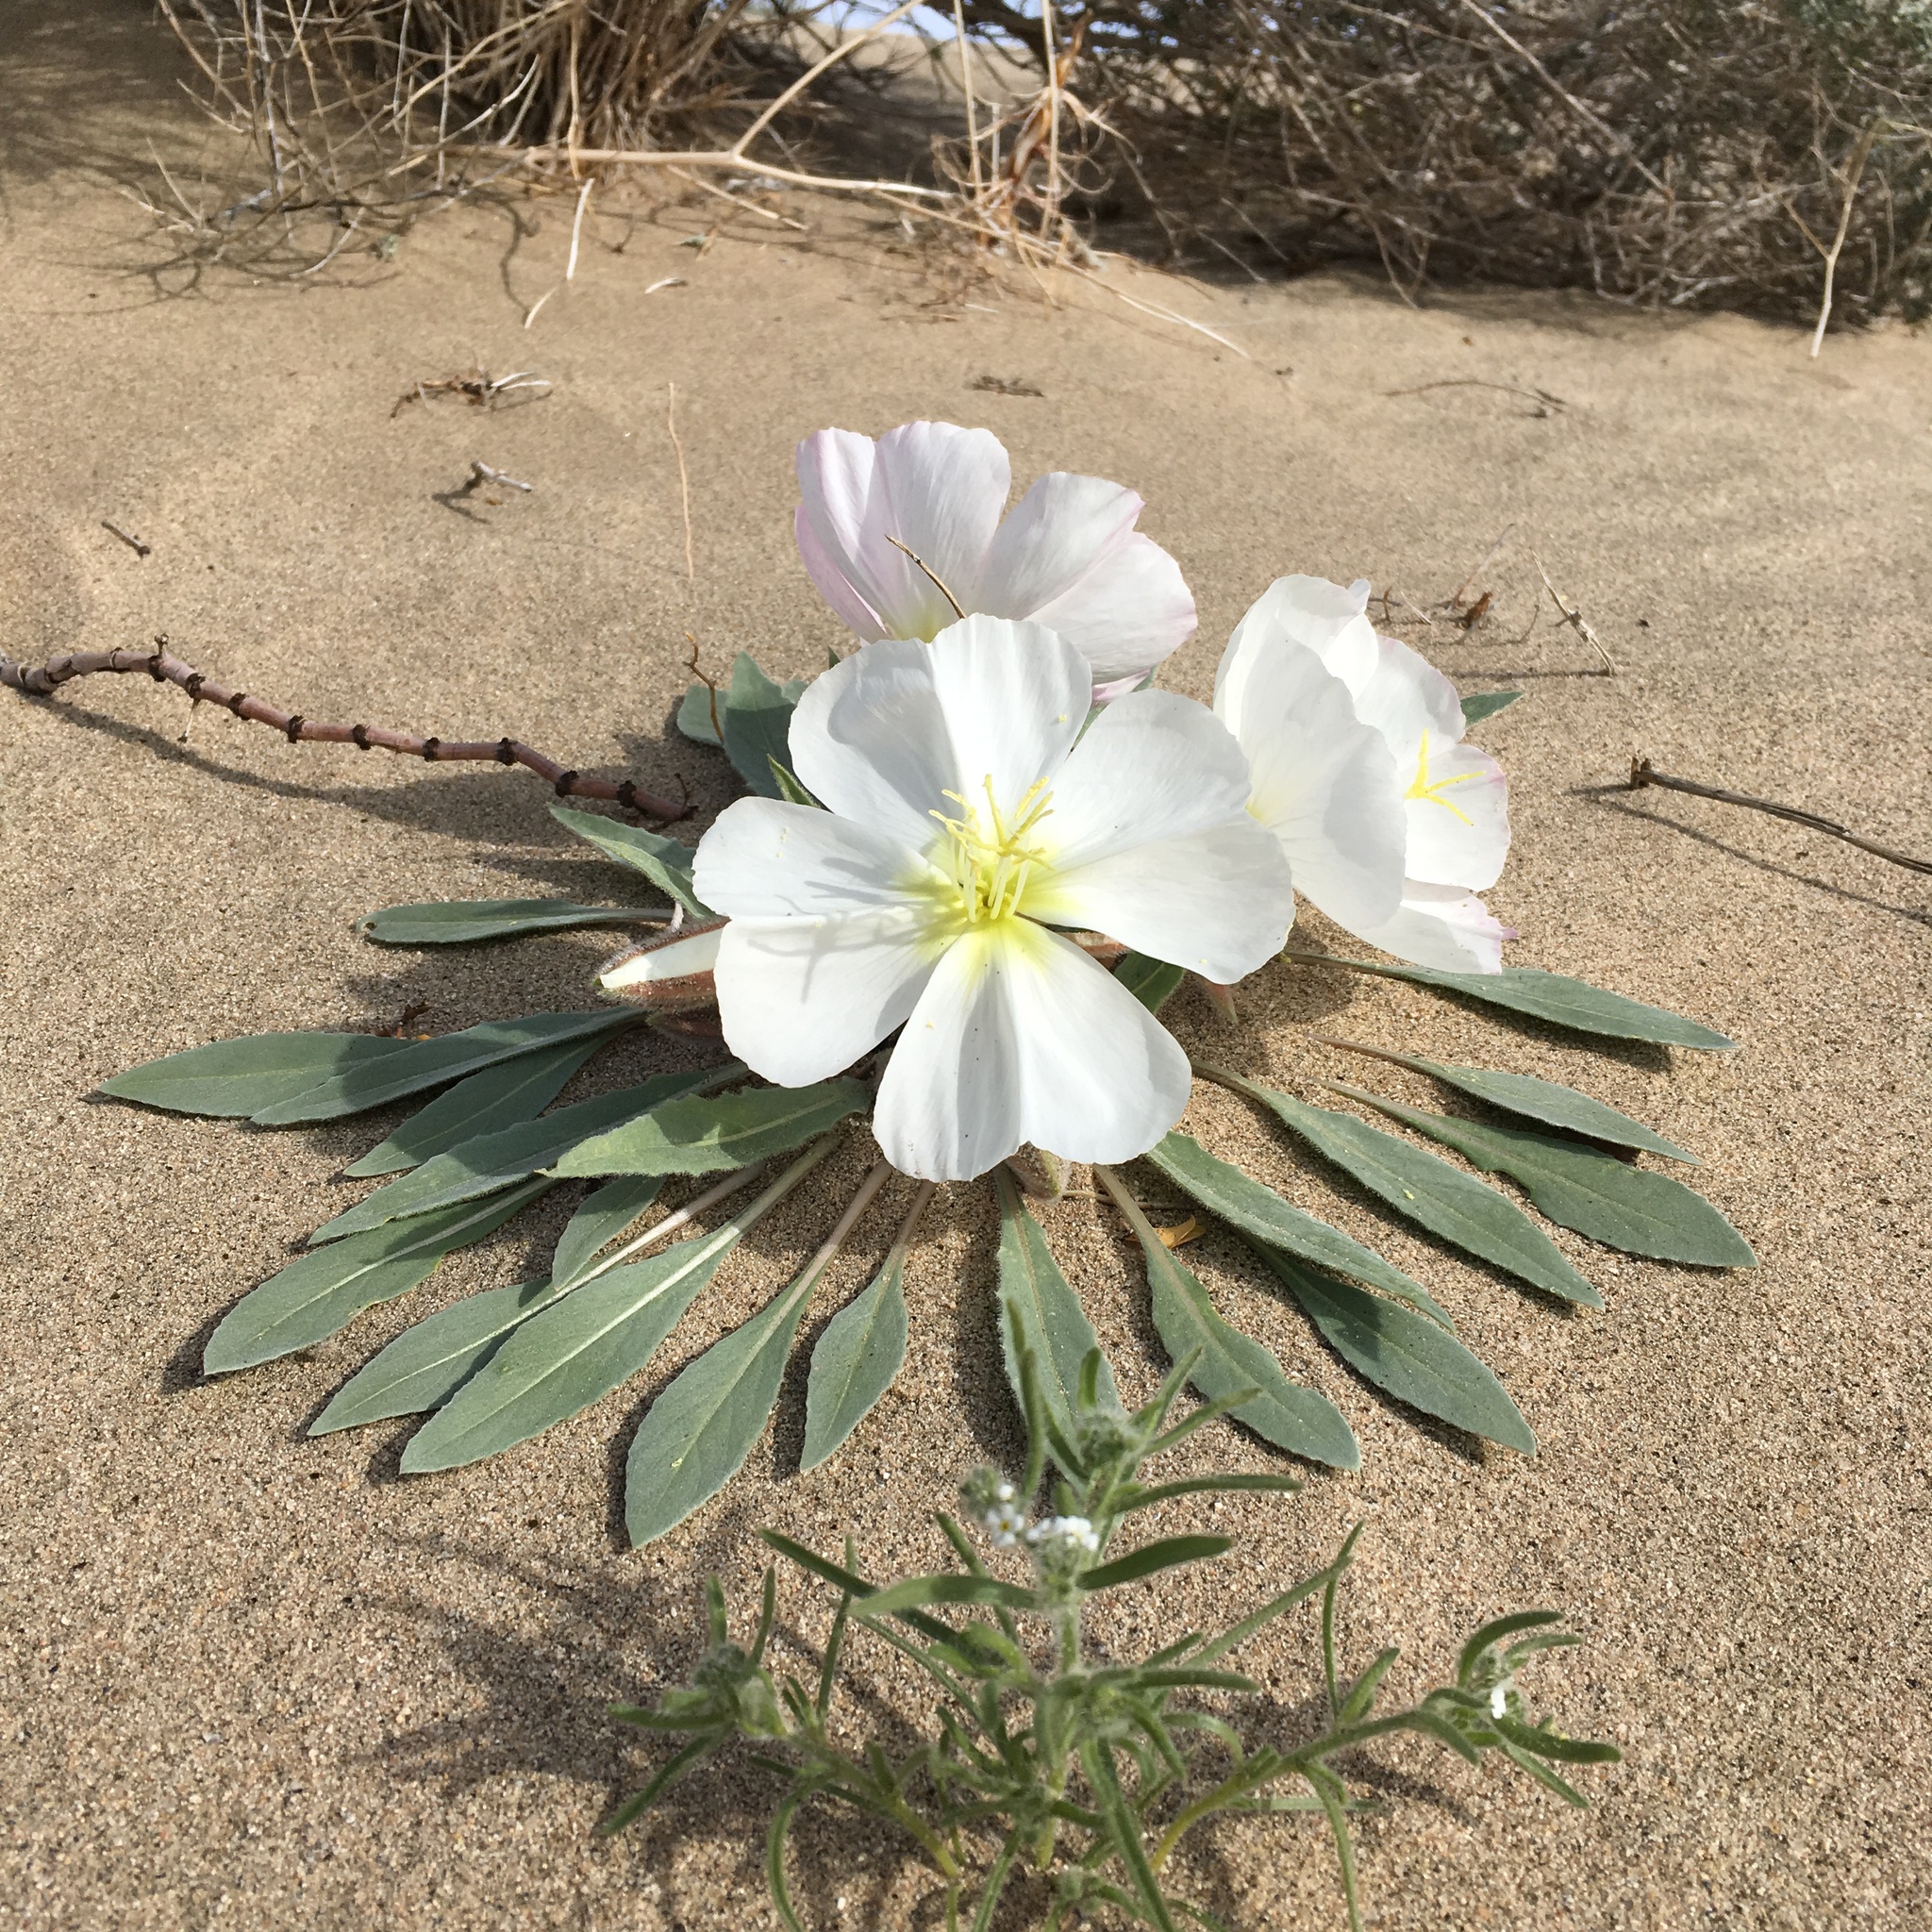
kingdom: Plantae
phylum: Tracheophyta
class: Magnoliopsida
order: Myrtales
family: Onagraceae
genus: Oenothera
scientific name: Oenothera deltoides
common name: Basket evening-primrose
